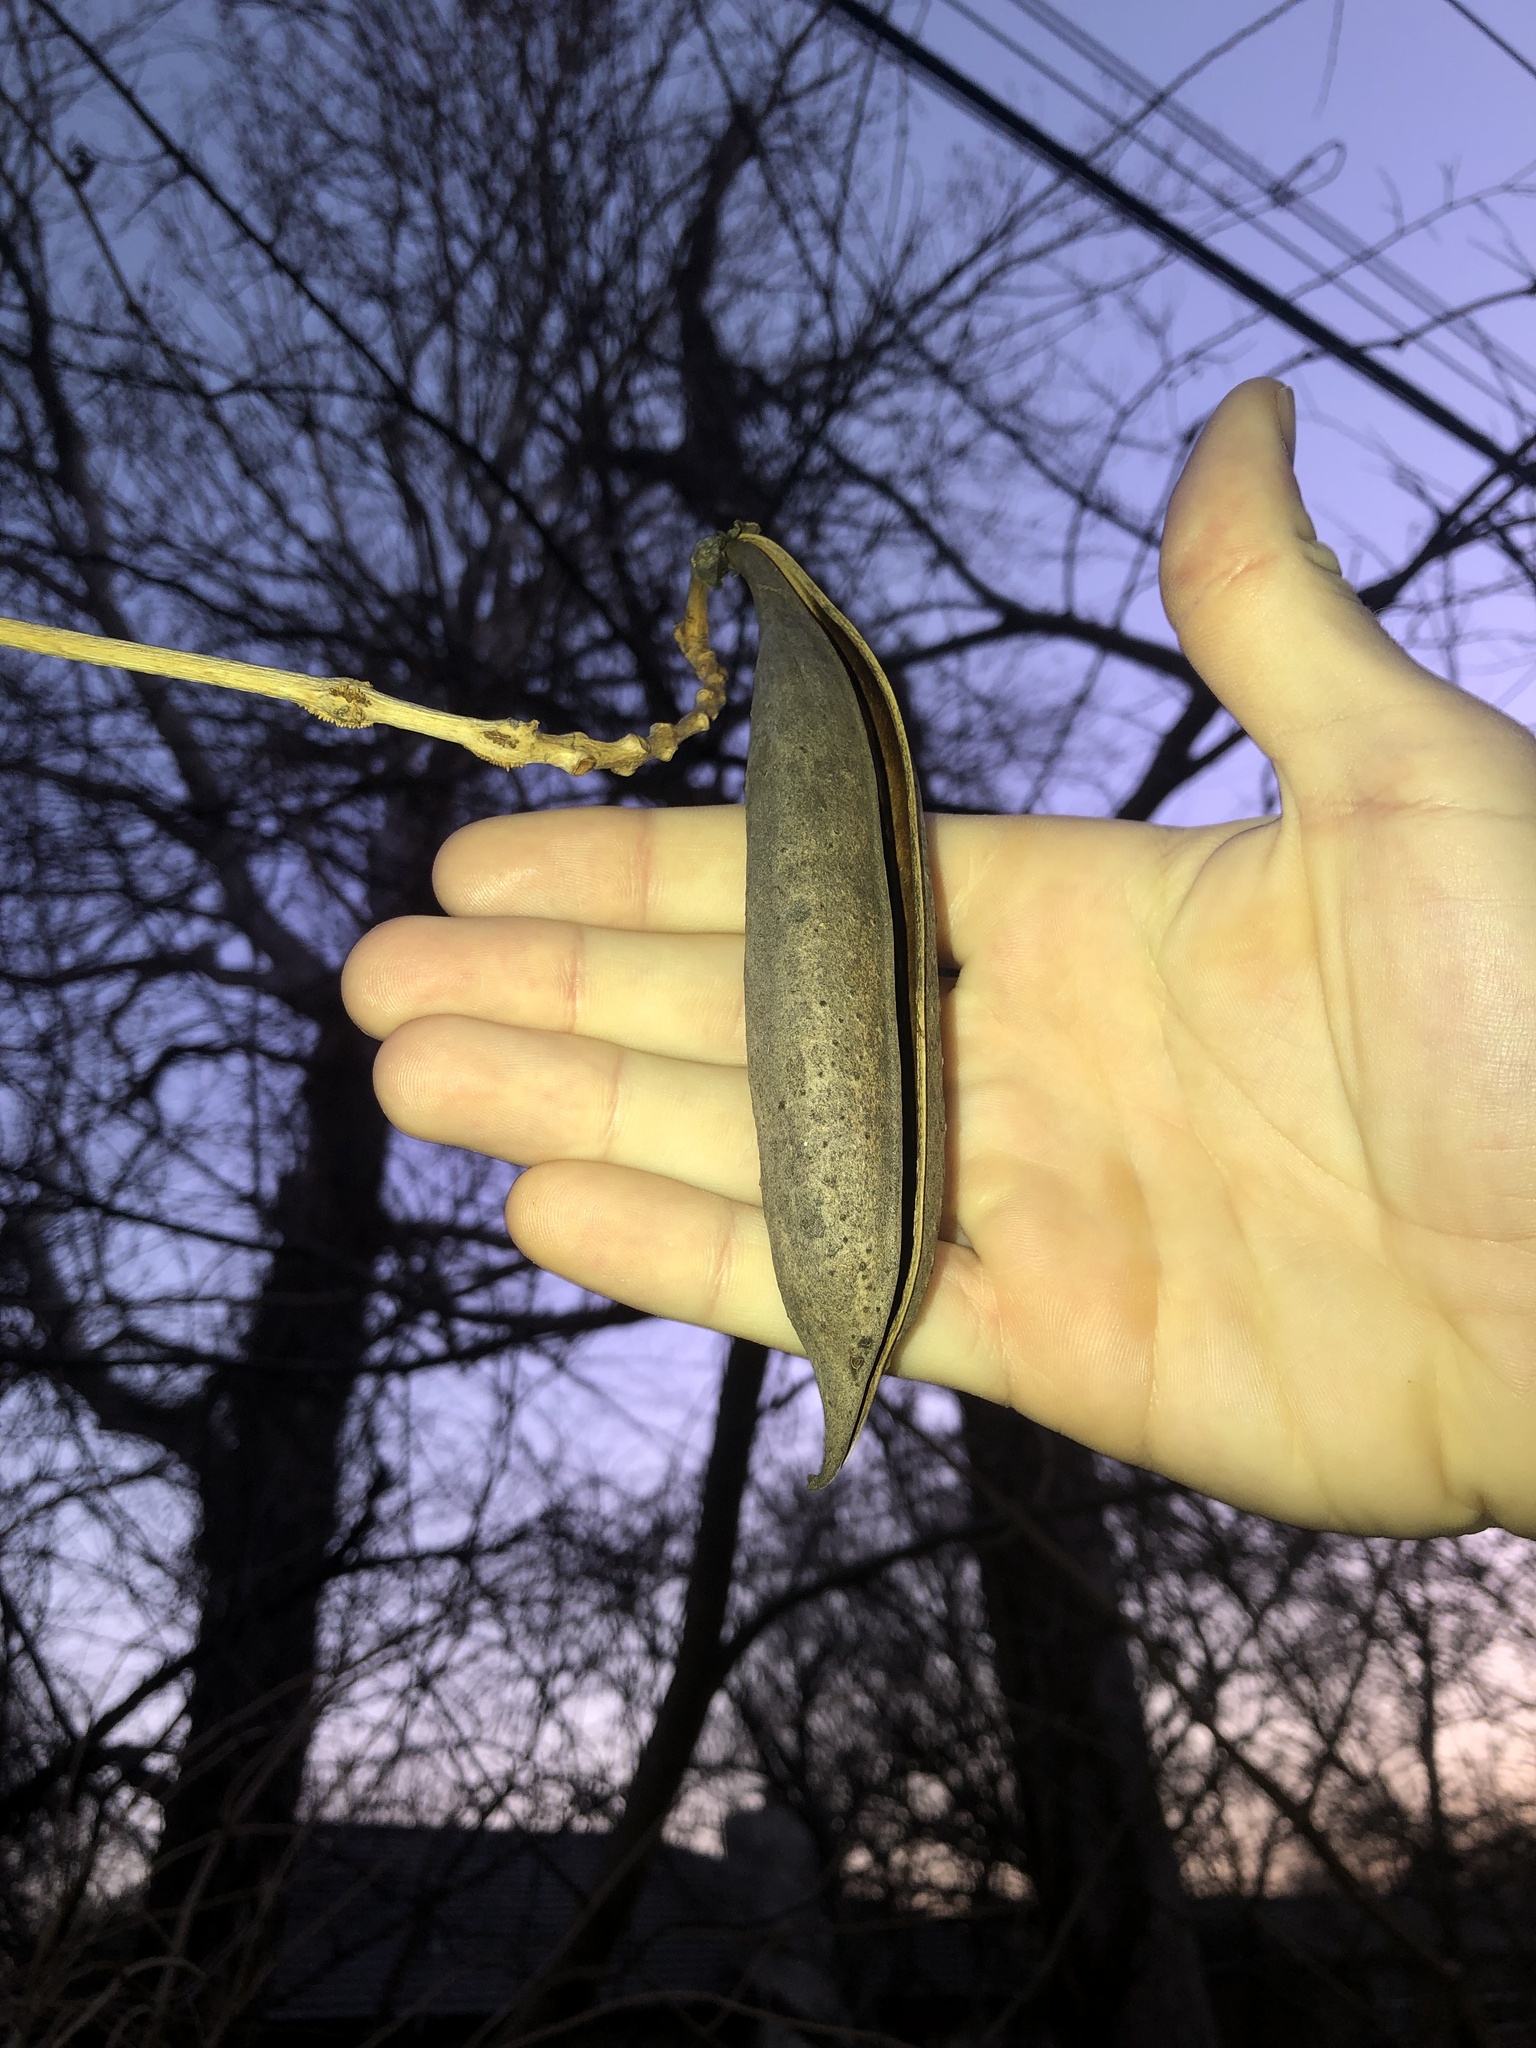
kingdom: Plantae
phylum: Tracheophyta
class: Magnoliopsida
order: Lamiales
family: Bignoniaceae
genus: Campsis
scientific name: Campsis radicans
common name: Trumpet-creeper
